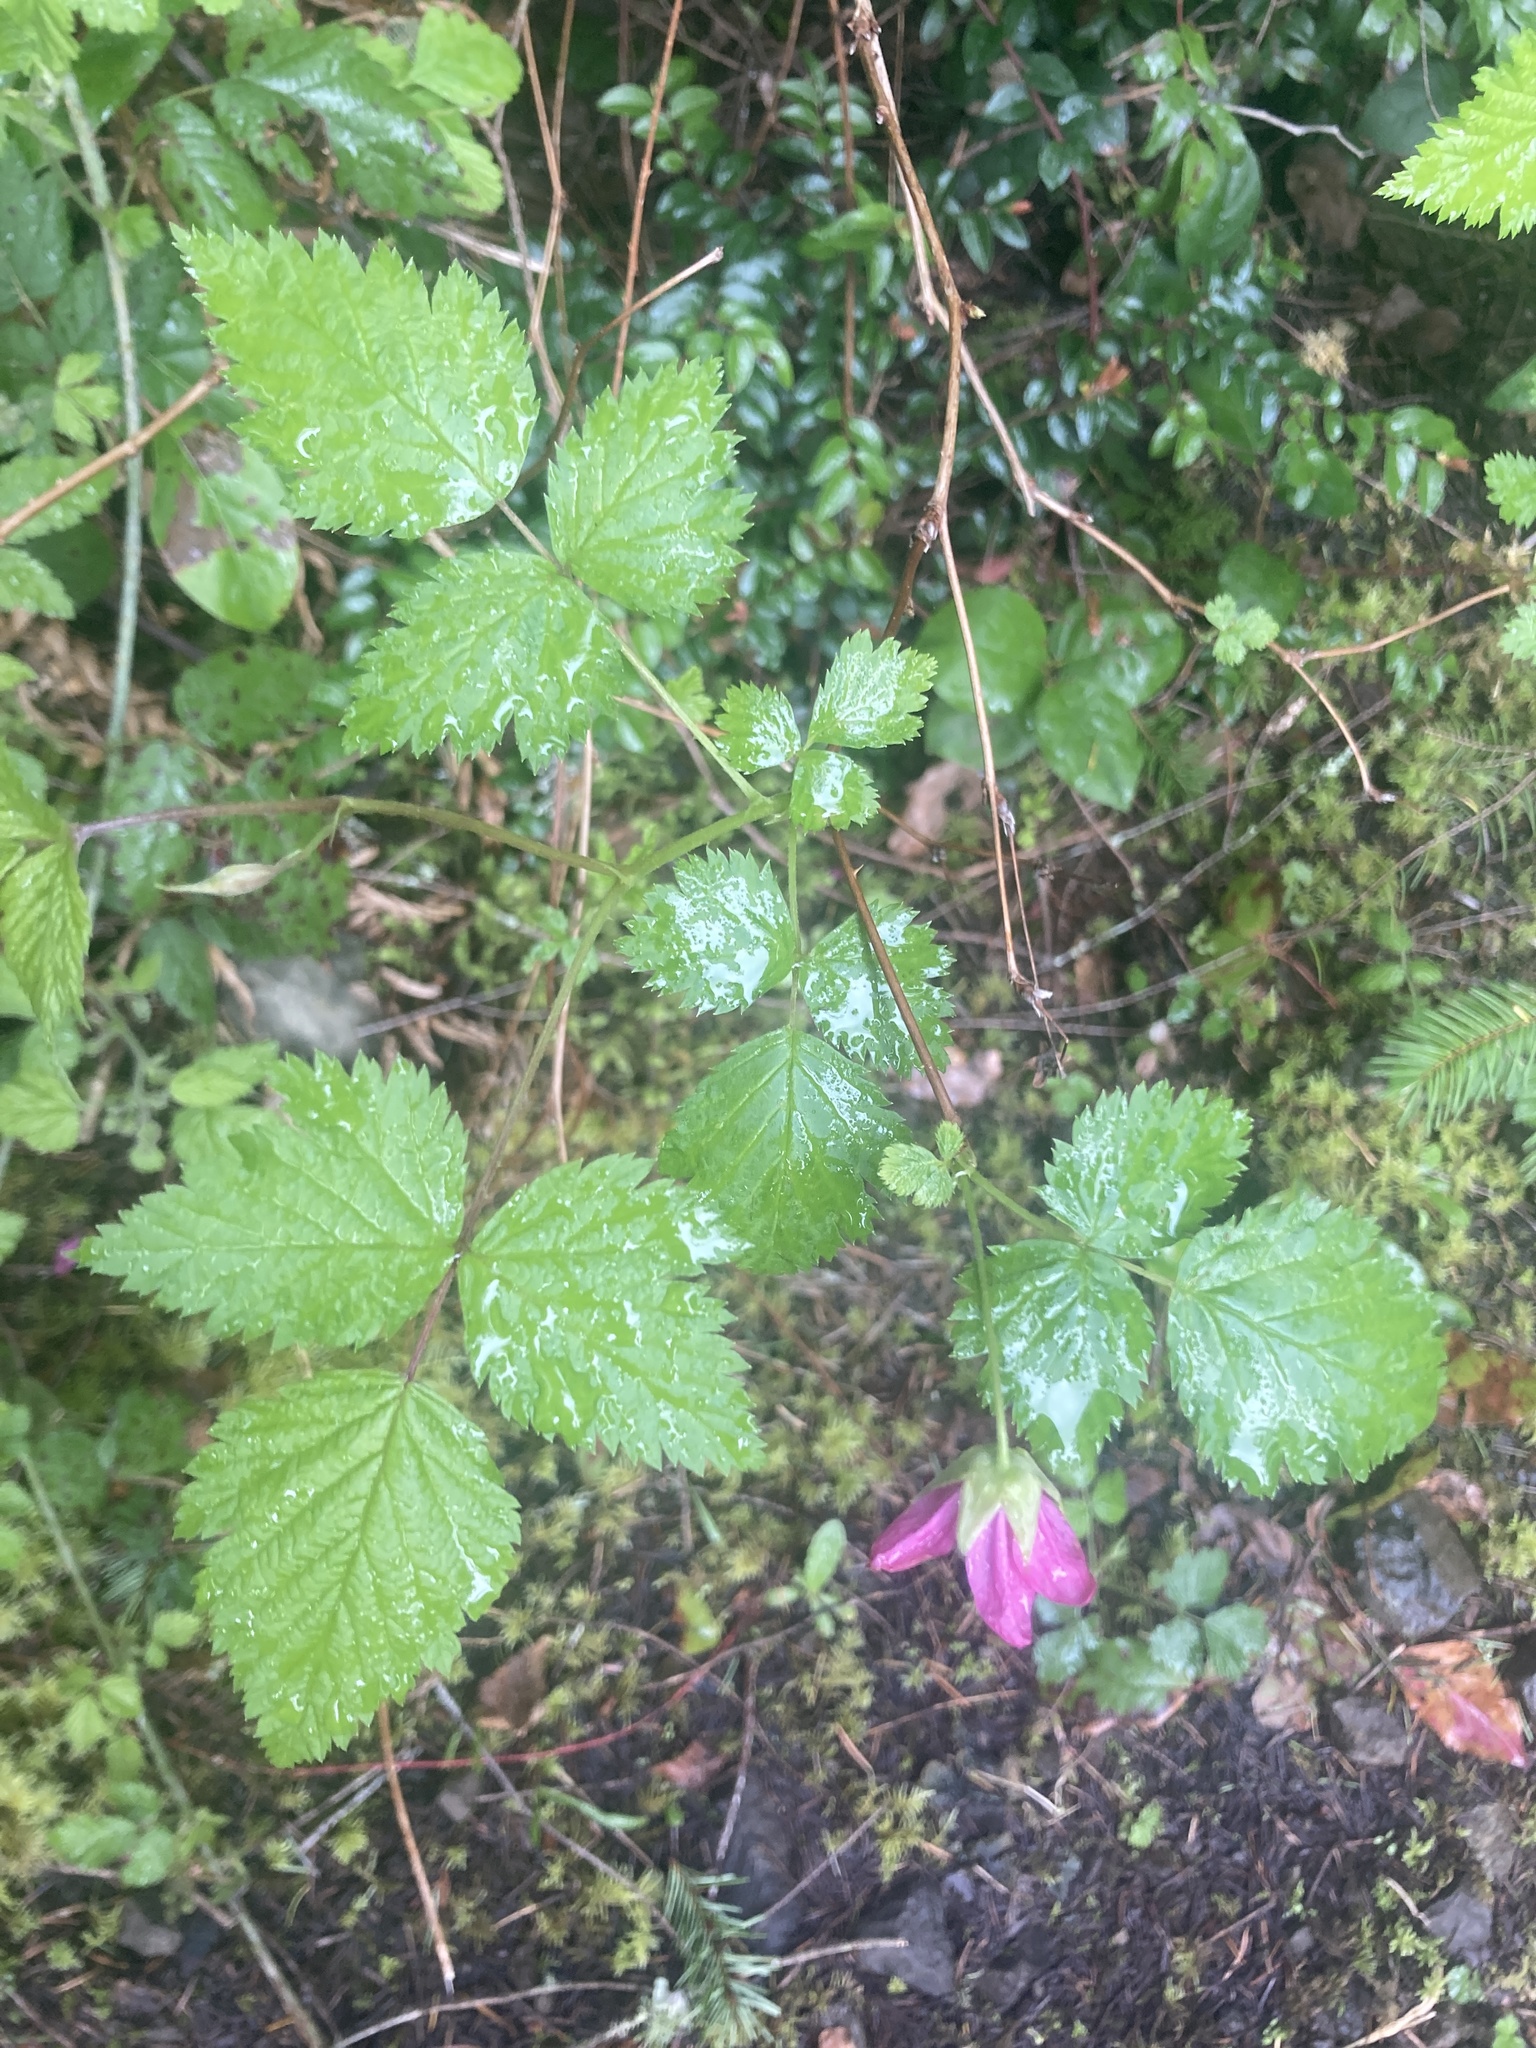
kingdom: Plantae
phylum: Tracheophyta
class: Magnoliopsida
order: Rosales
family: Rosaceae
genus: Rubus
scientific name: Rubus spectabilis
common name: Salmonberry
